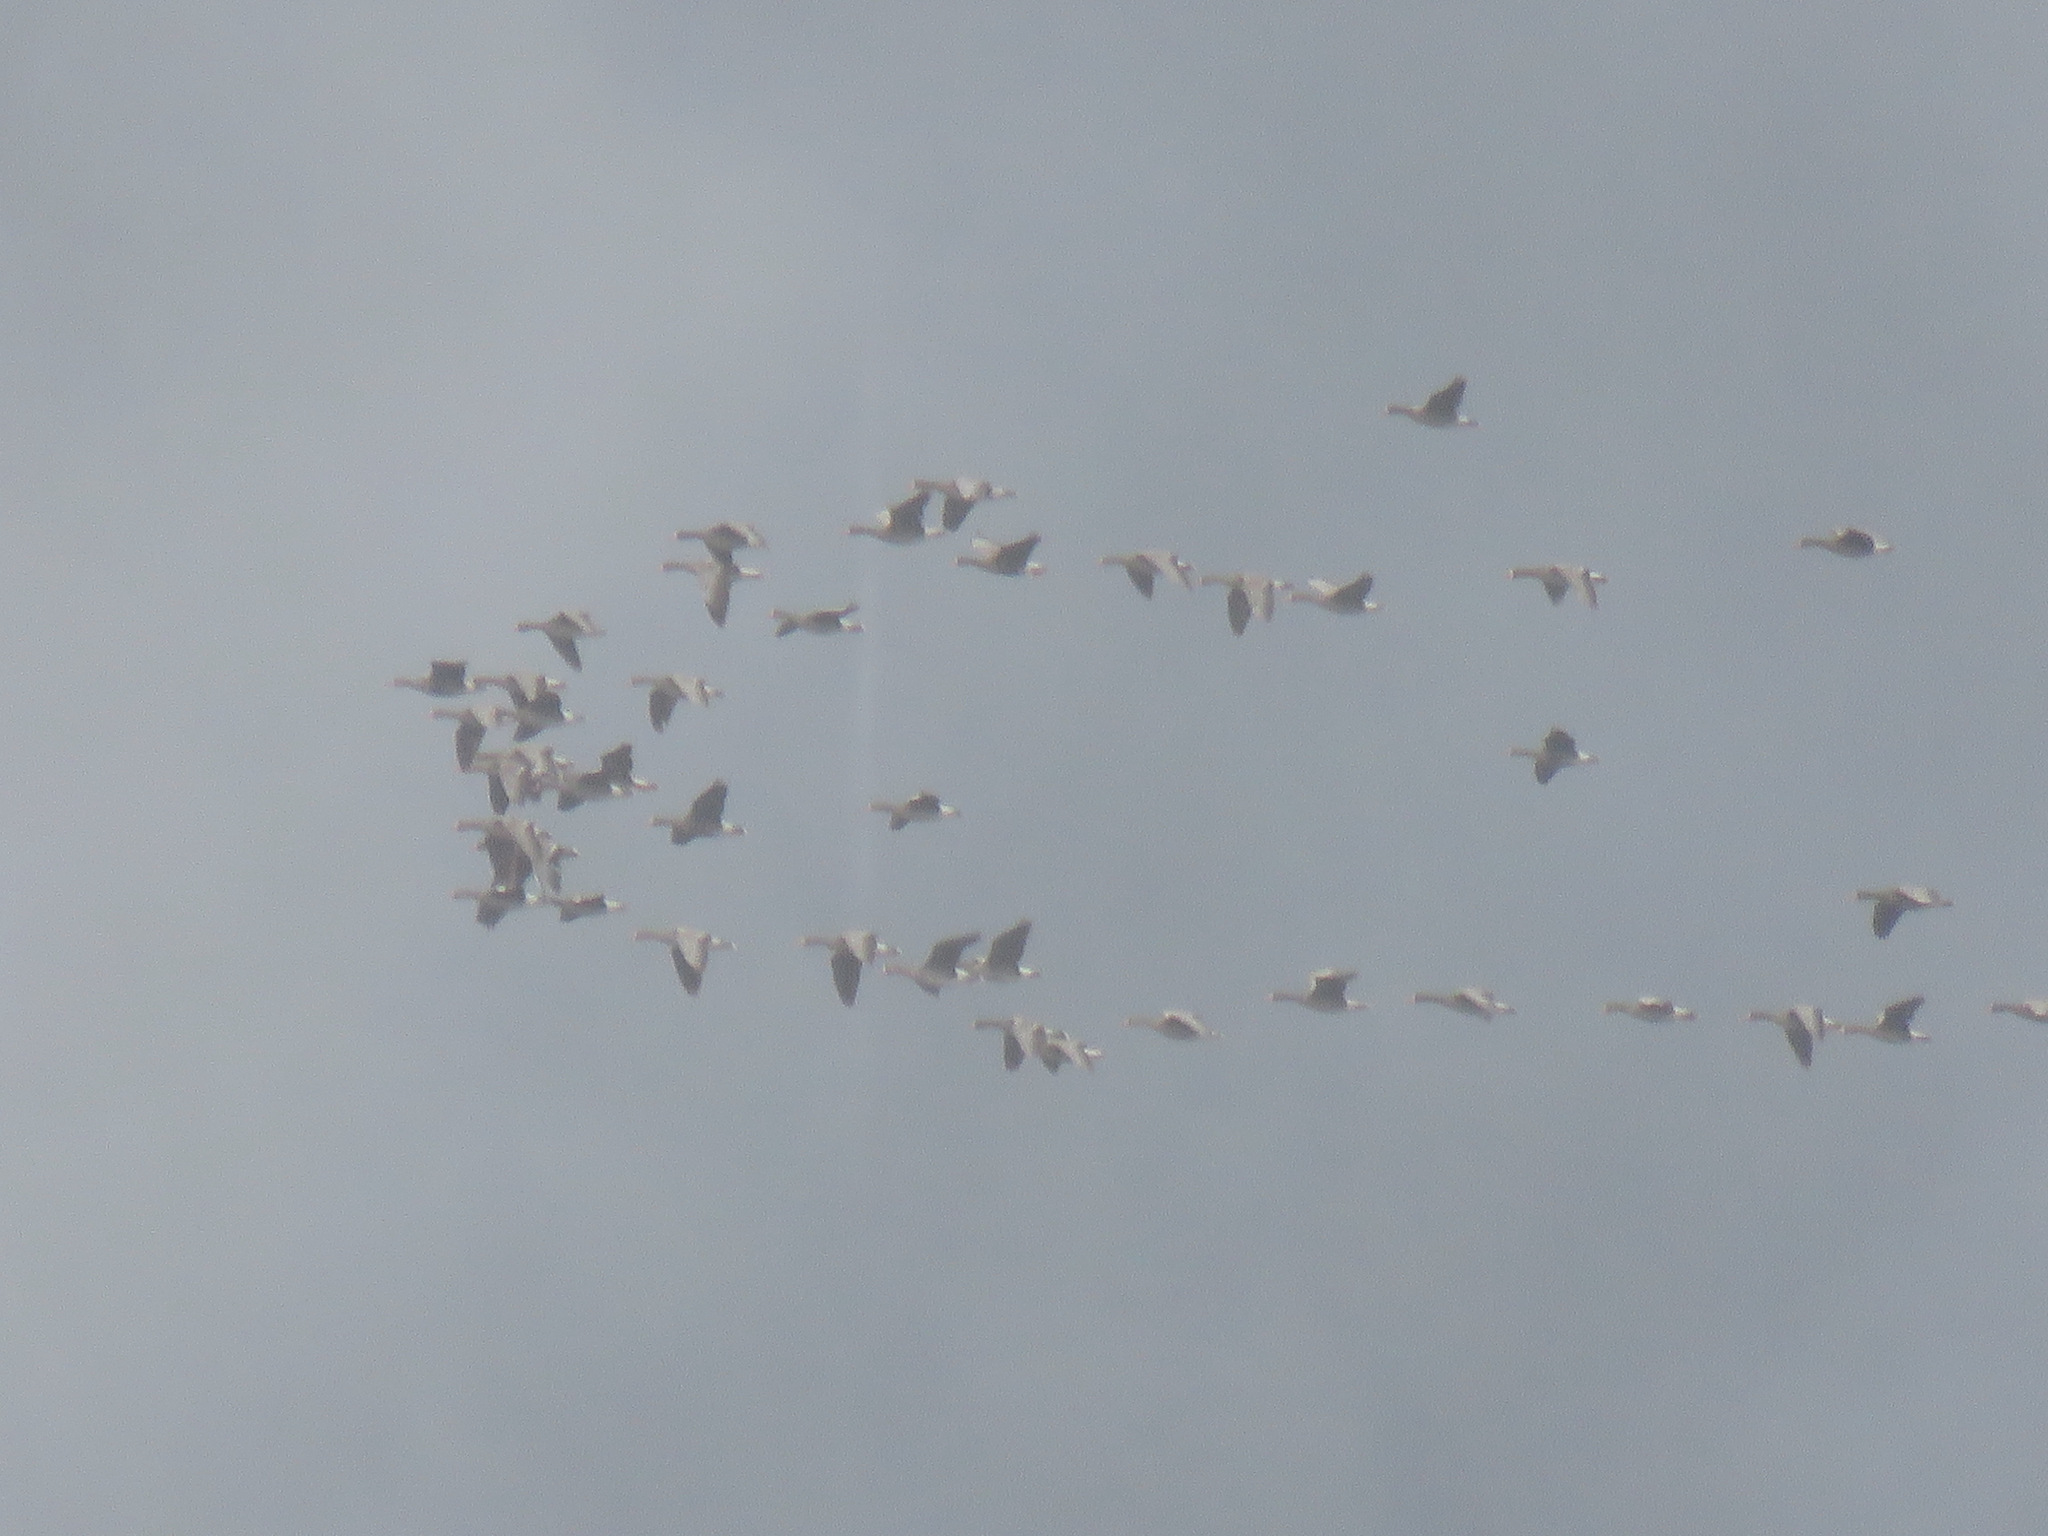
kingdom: Animalia
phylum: Chordata
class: Aves
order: Anseriformes
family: Anatidae
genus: Anser
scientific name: Anser albifrons
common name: Greater white-fronted goose
